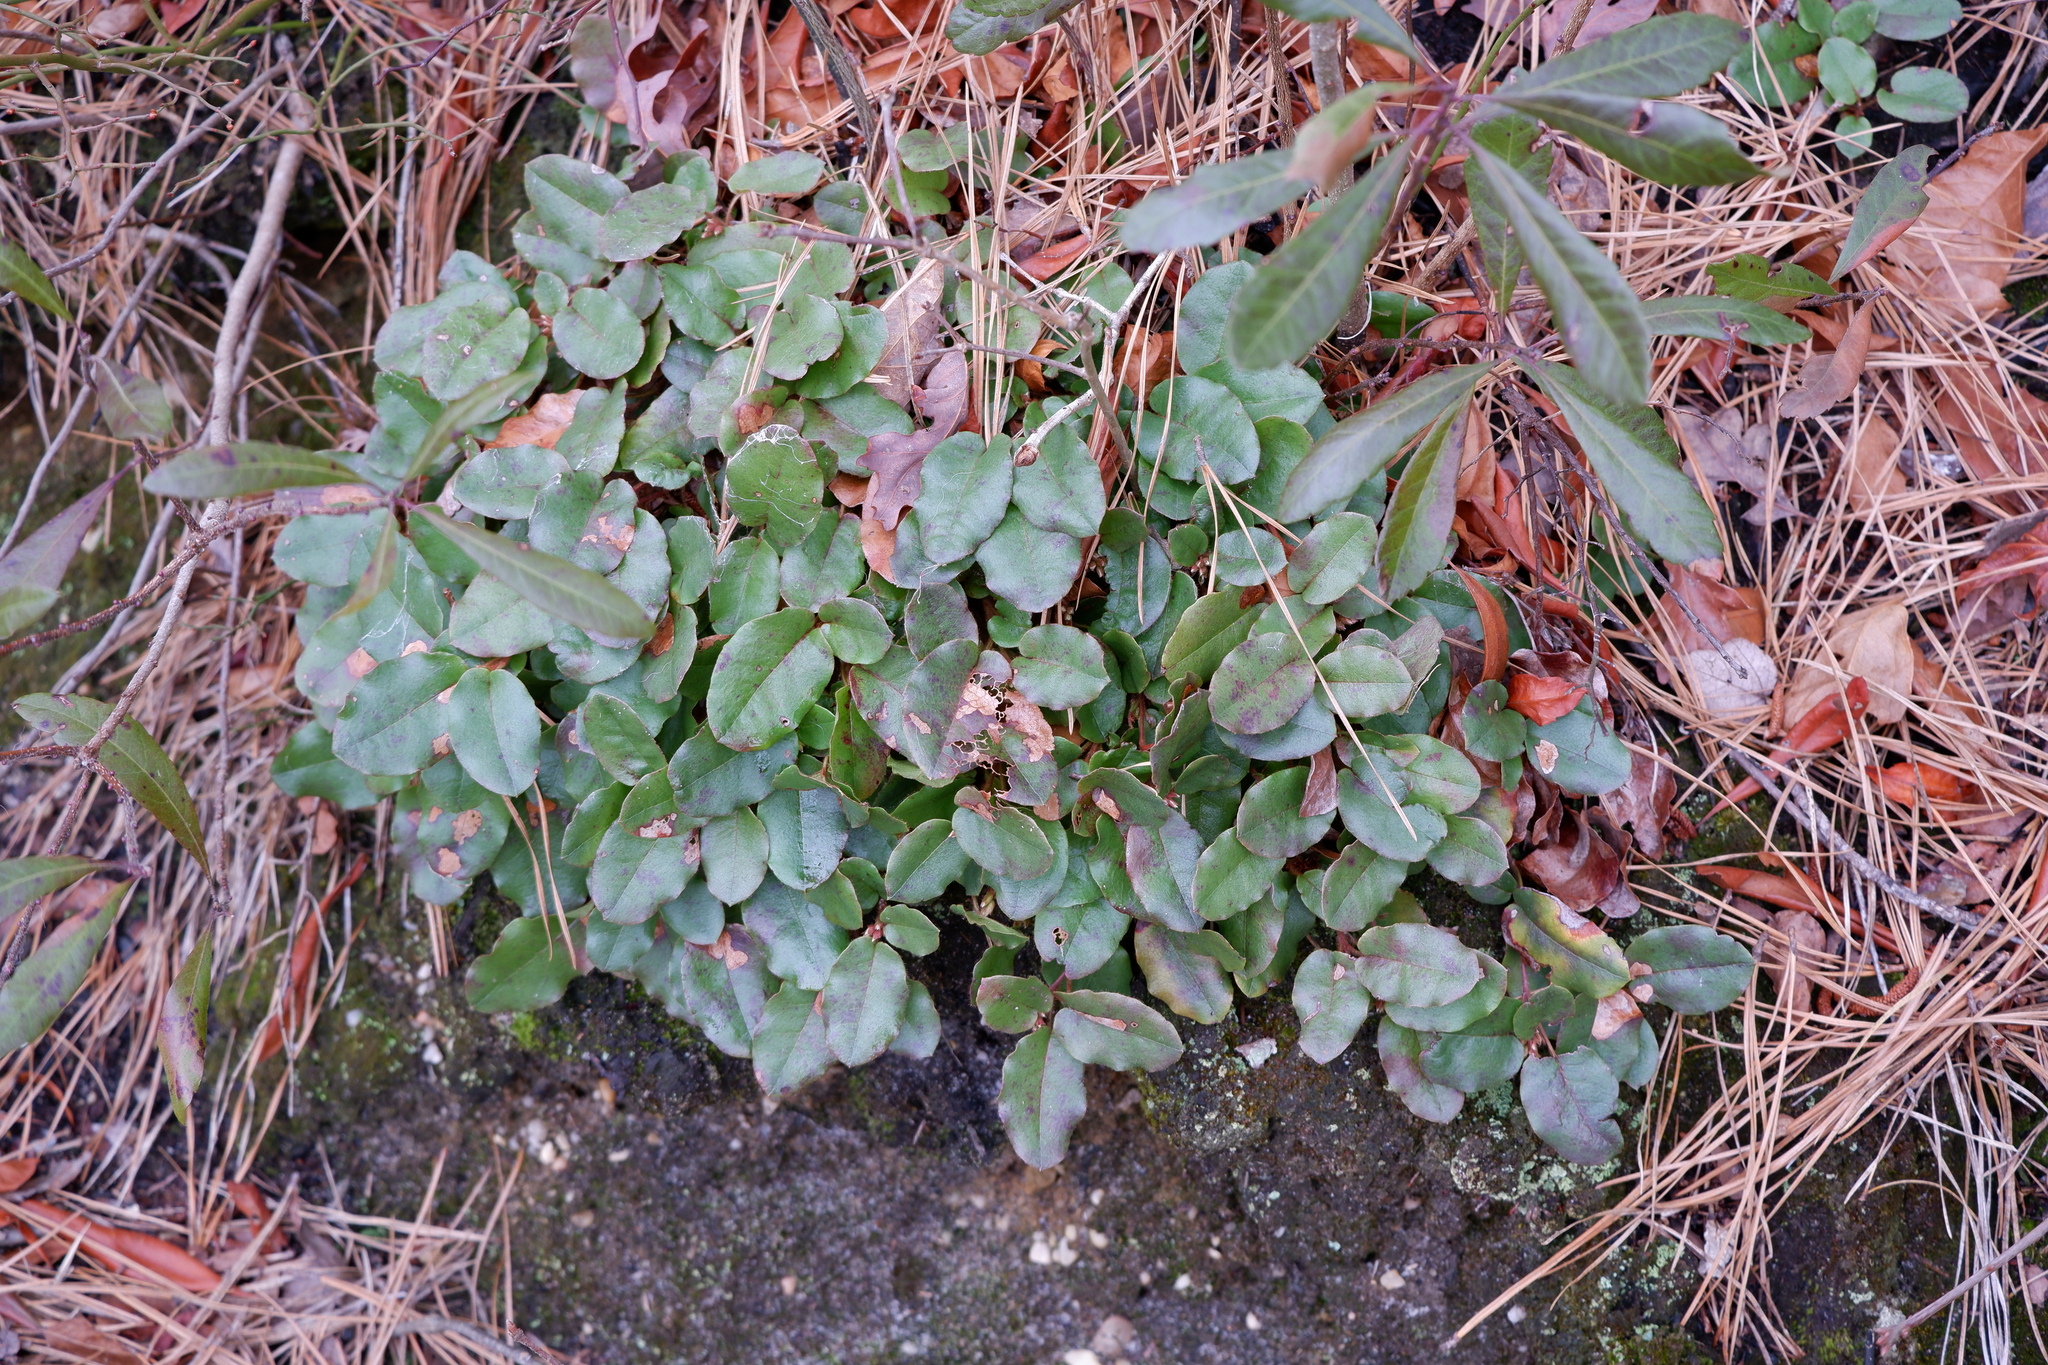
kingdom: Plantae
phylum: Tracheophyta
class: Magnoliopsida
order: Ericales
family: Ericaceae
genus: Epigaea
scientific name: Epigaea repens
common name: Gravelroot
